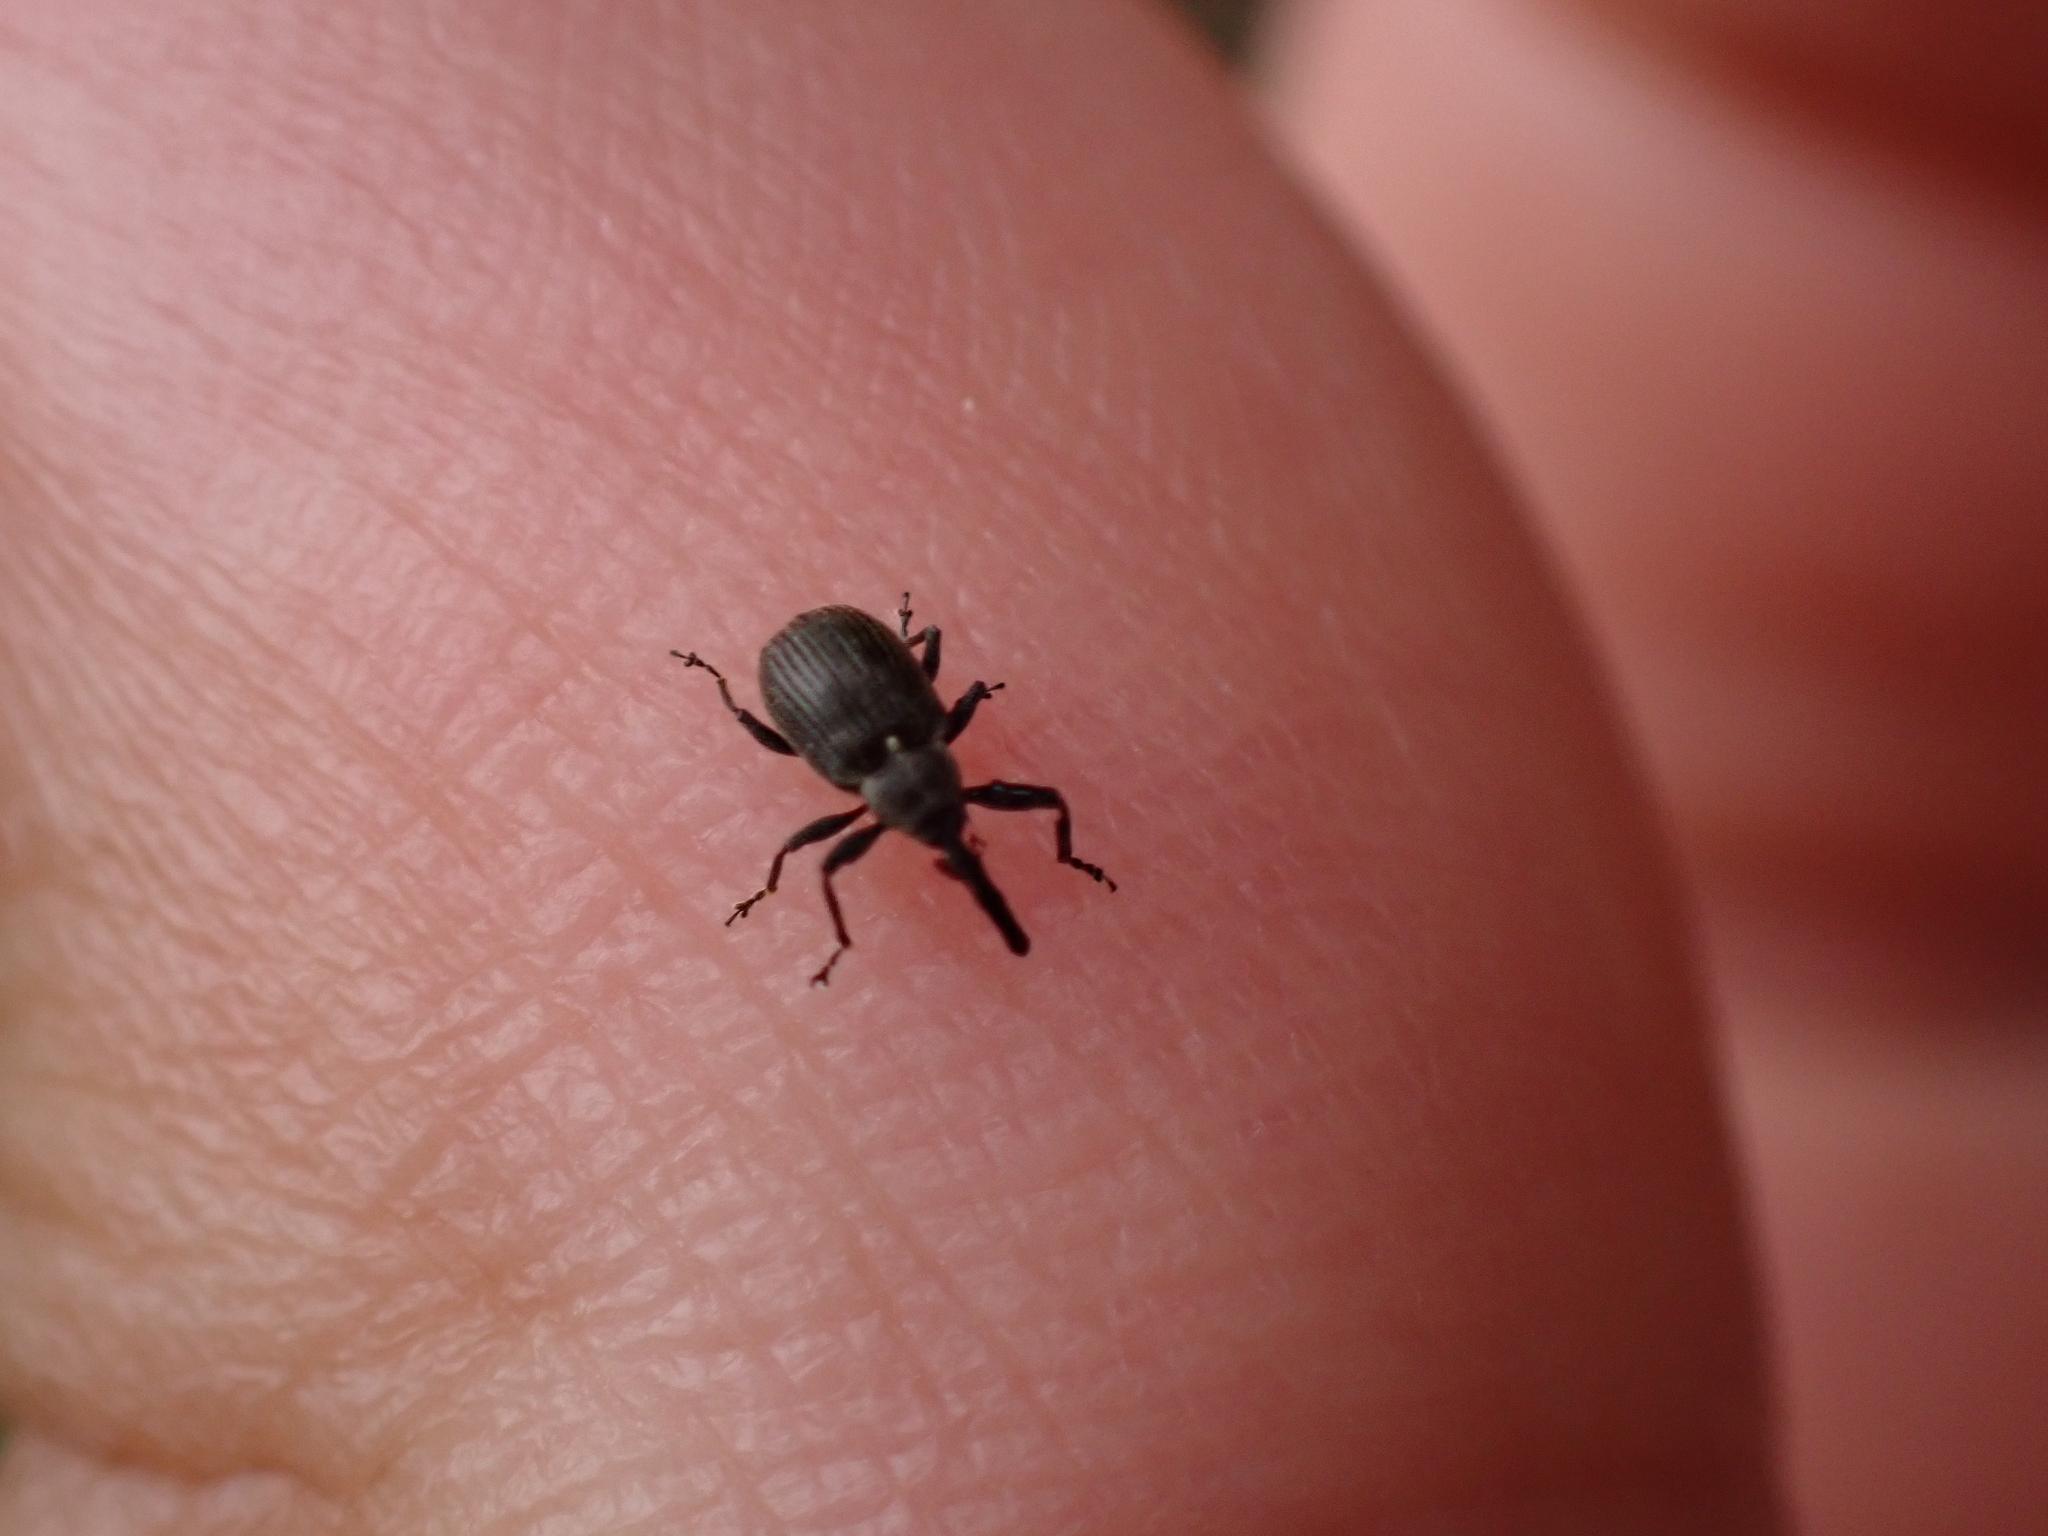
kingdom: Animalia
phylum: Arthropoda
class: Insecta
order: Coleoptera
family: Curculionidae
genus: Anthonomus
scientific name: Anthonomus rubi
